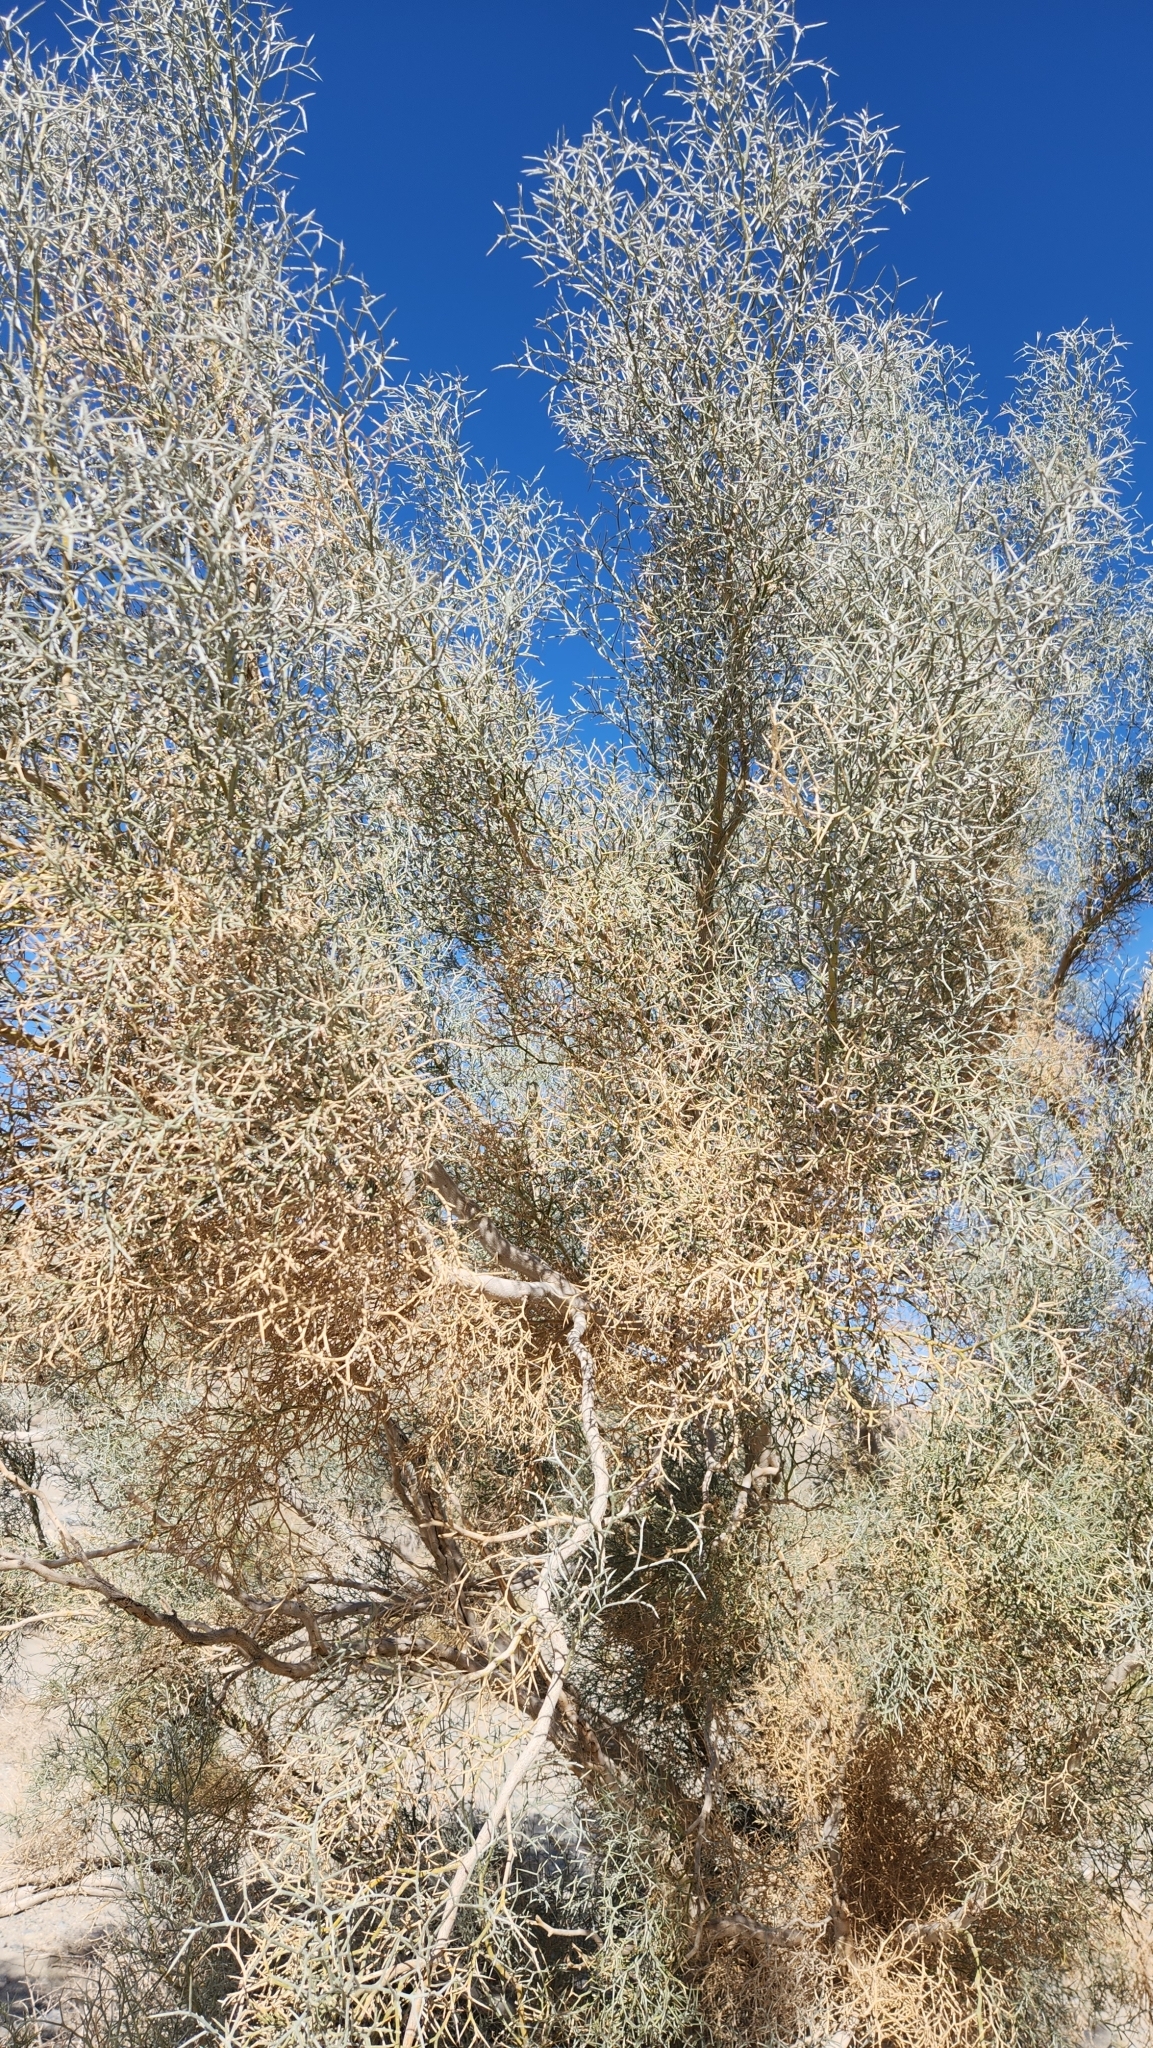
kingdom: Plantae
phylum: Tracheophyta
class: Magnoliopsida
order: Fabales
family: Fabaceae
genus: Psorothamnus
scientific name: Psorothamnus spinosus
